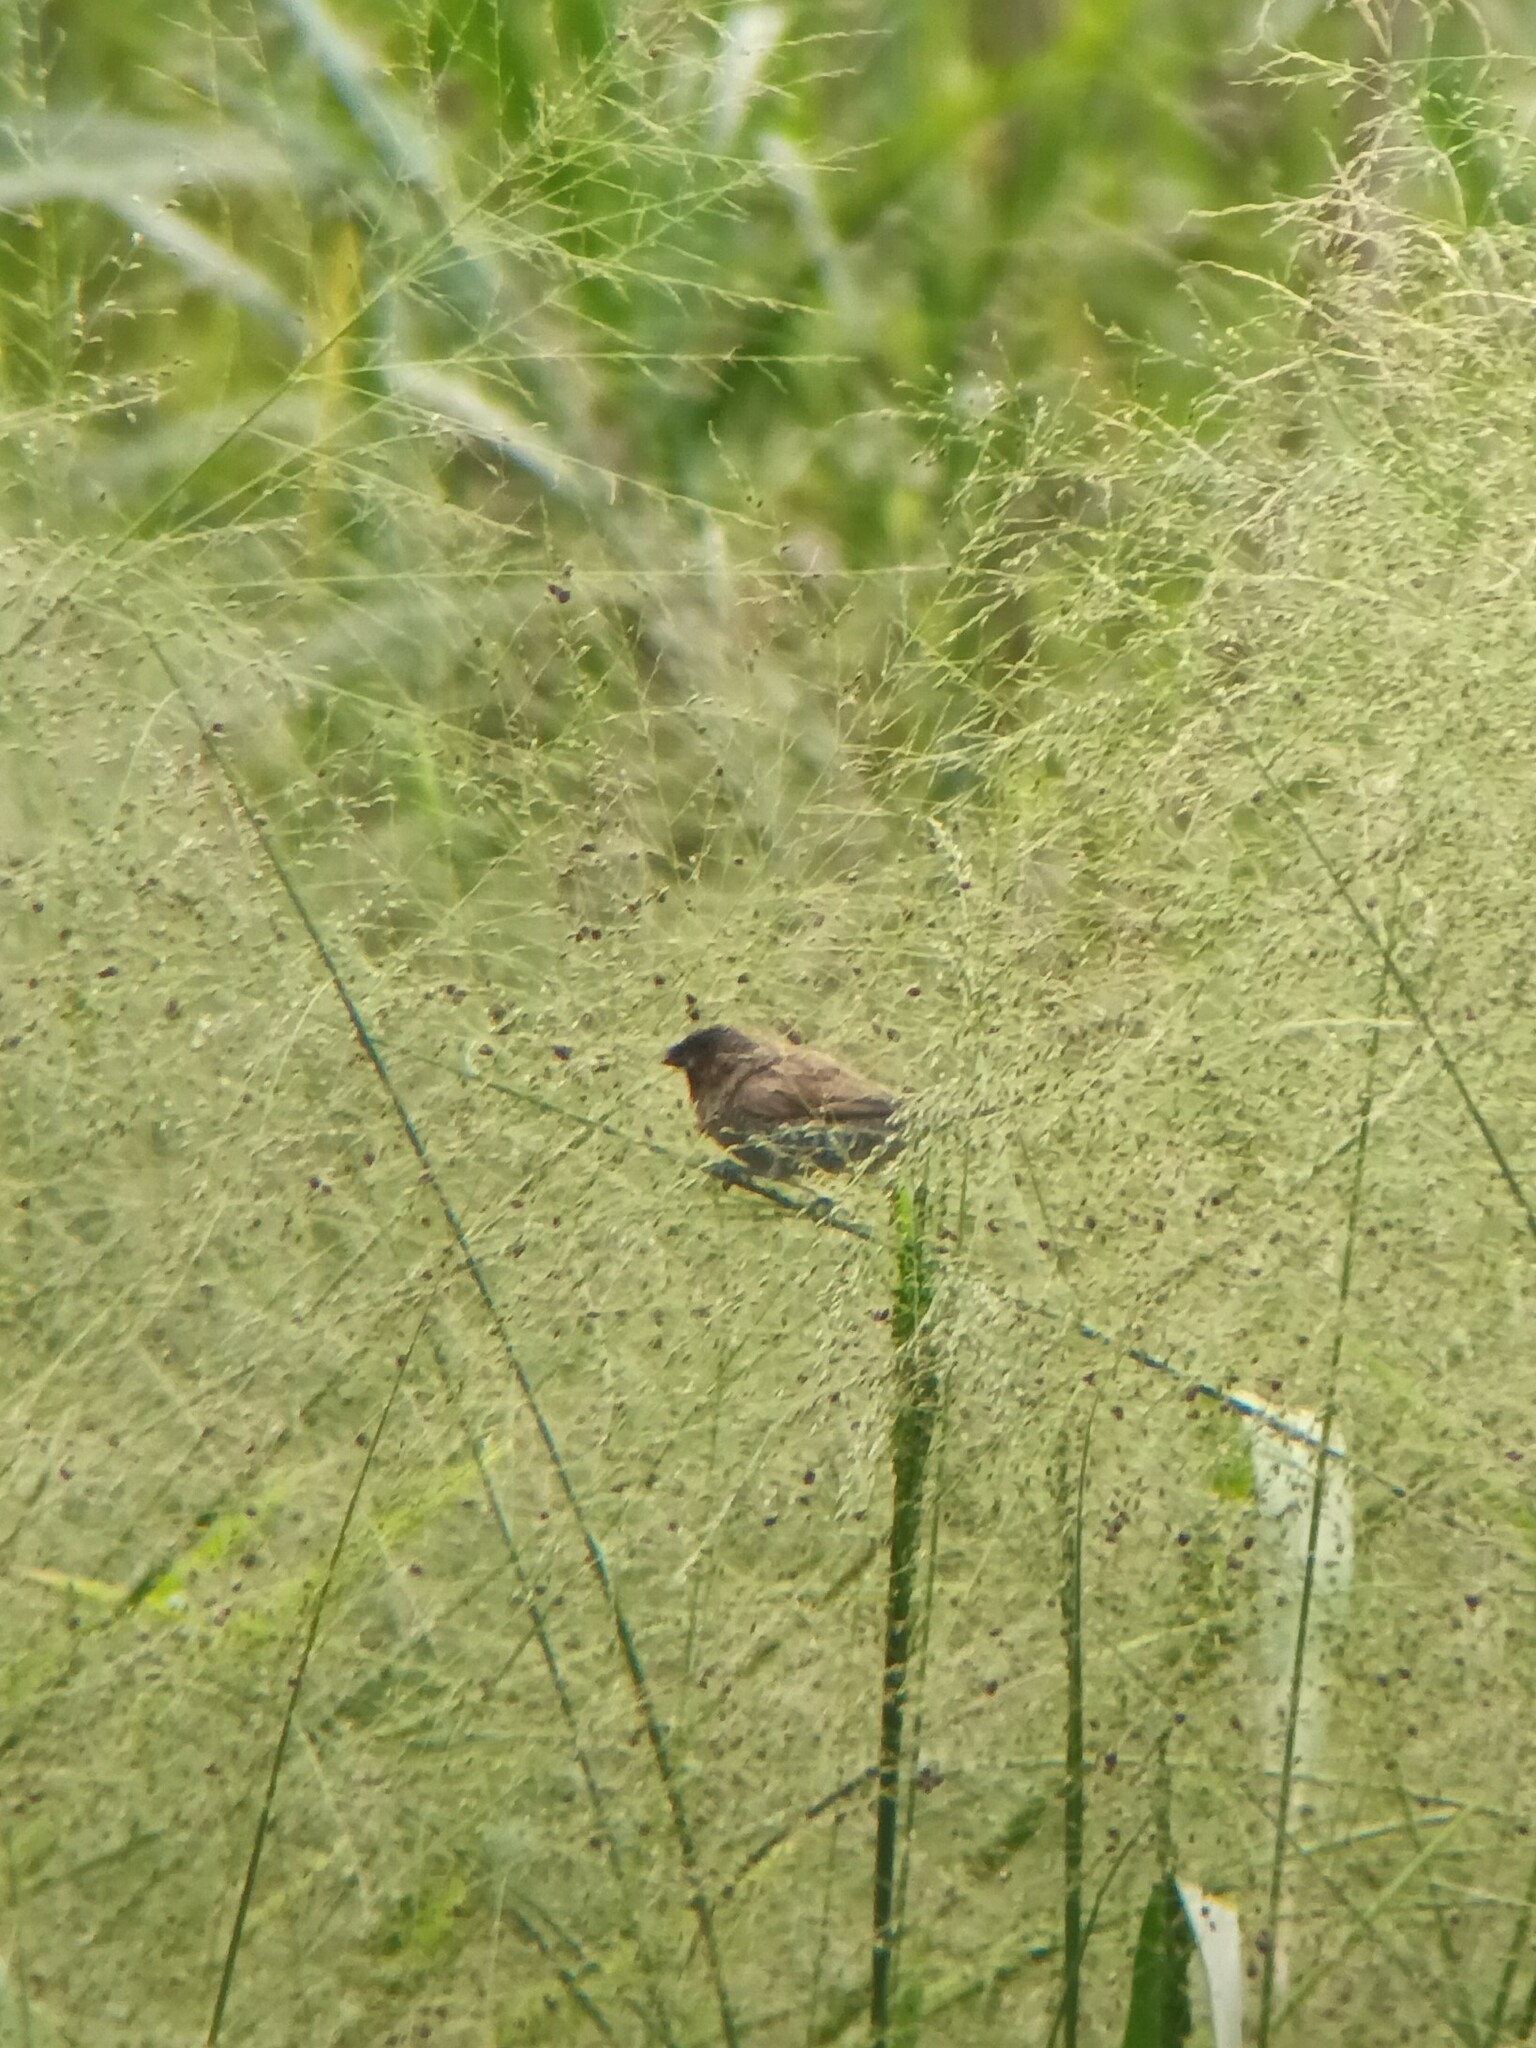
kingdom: Animalia
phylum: Chordata
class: Aves
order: Passeriformes
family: Estrildidae
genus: Lonchura
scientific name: Lonchura punctulata
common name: Scaly-breasted munia
